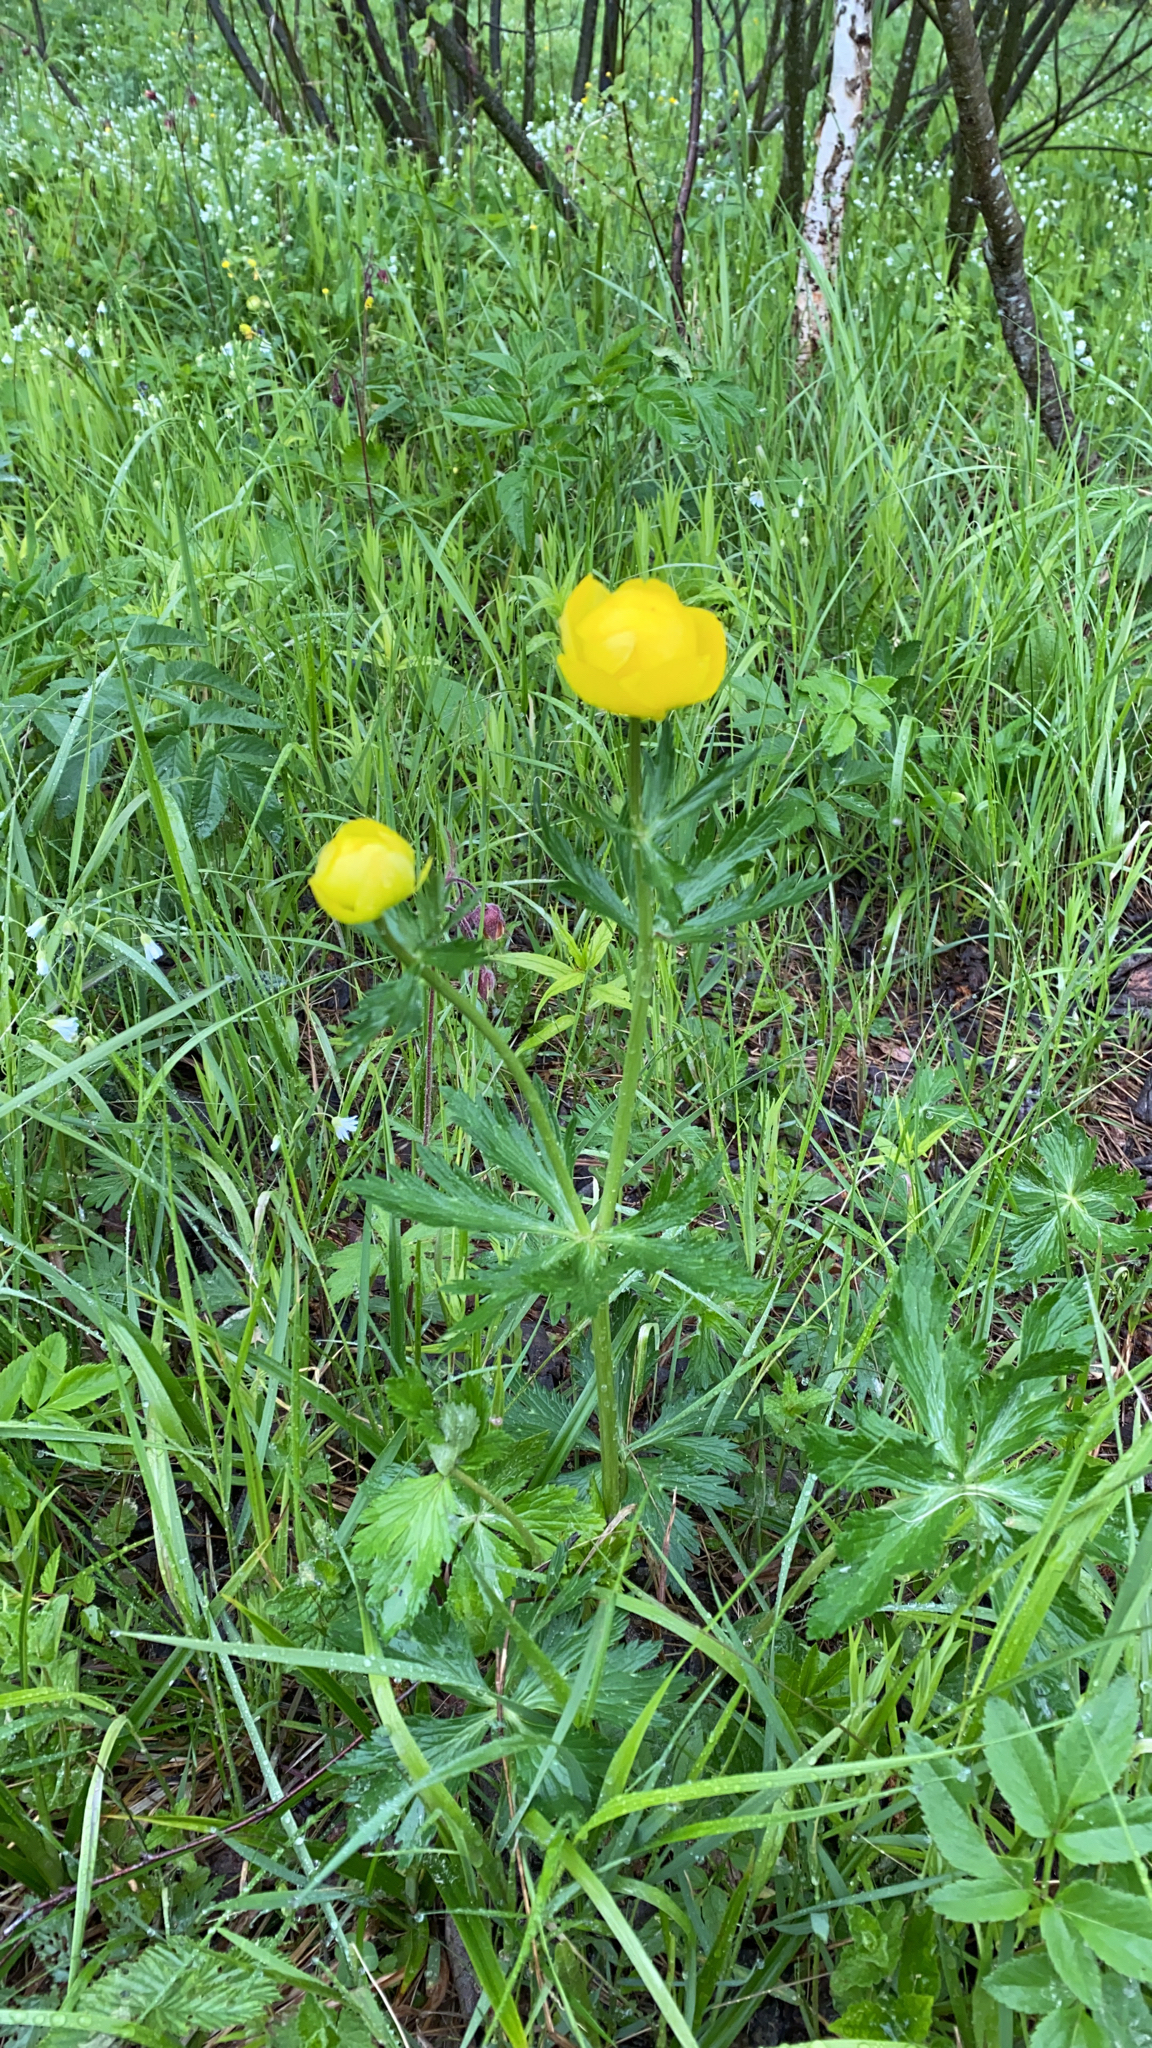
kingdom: Plantae
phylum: Tracheophyta
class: Magnoliopsida
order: Ranunculales
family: Ranunculaceae
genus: Trollius
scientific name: Trollius europaeus
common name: European globeflower
